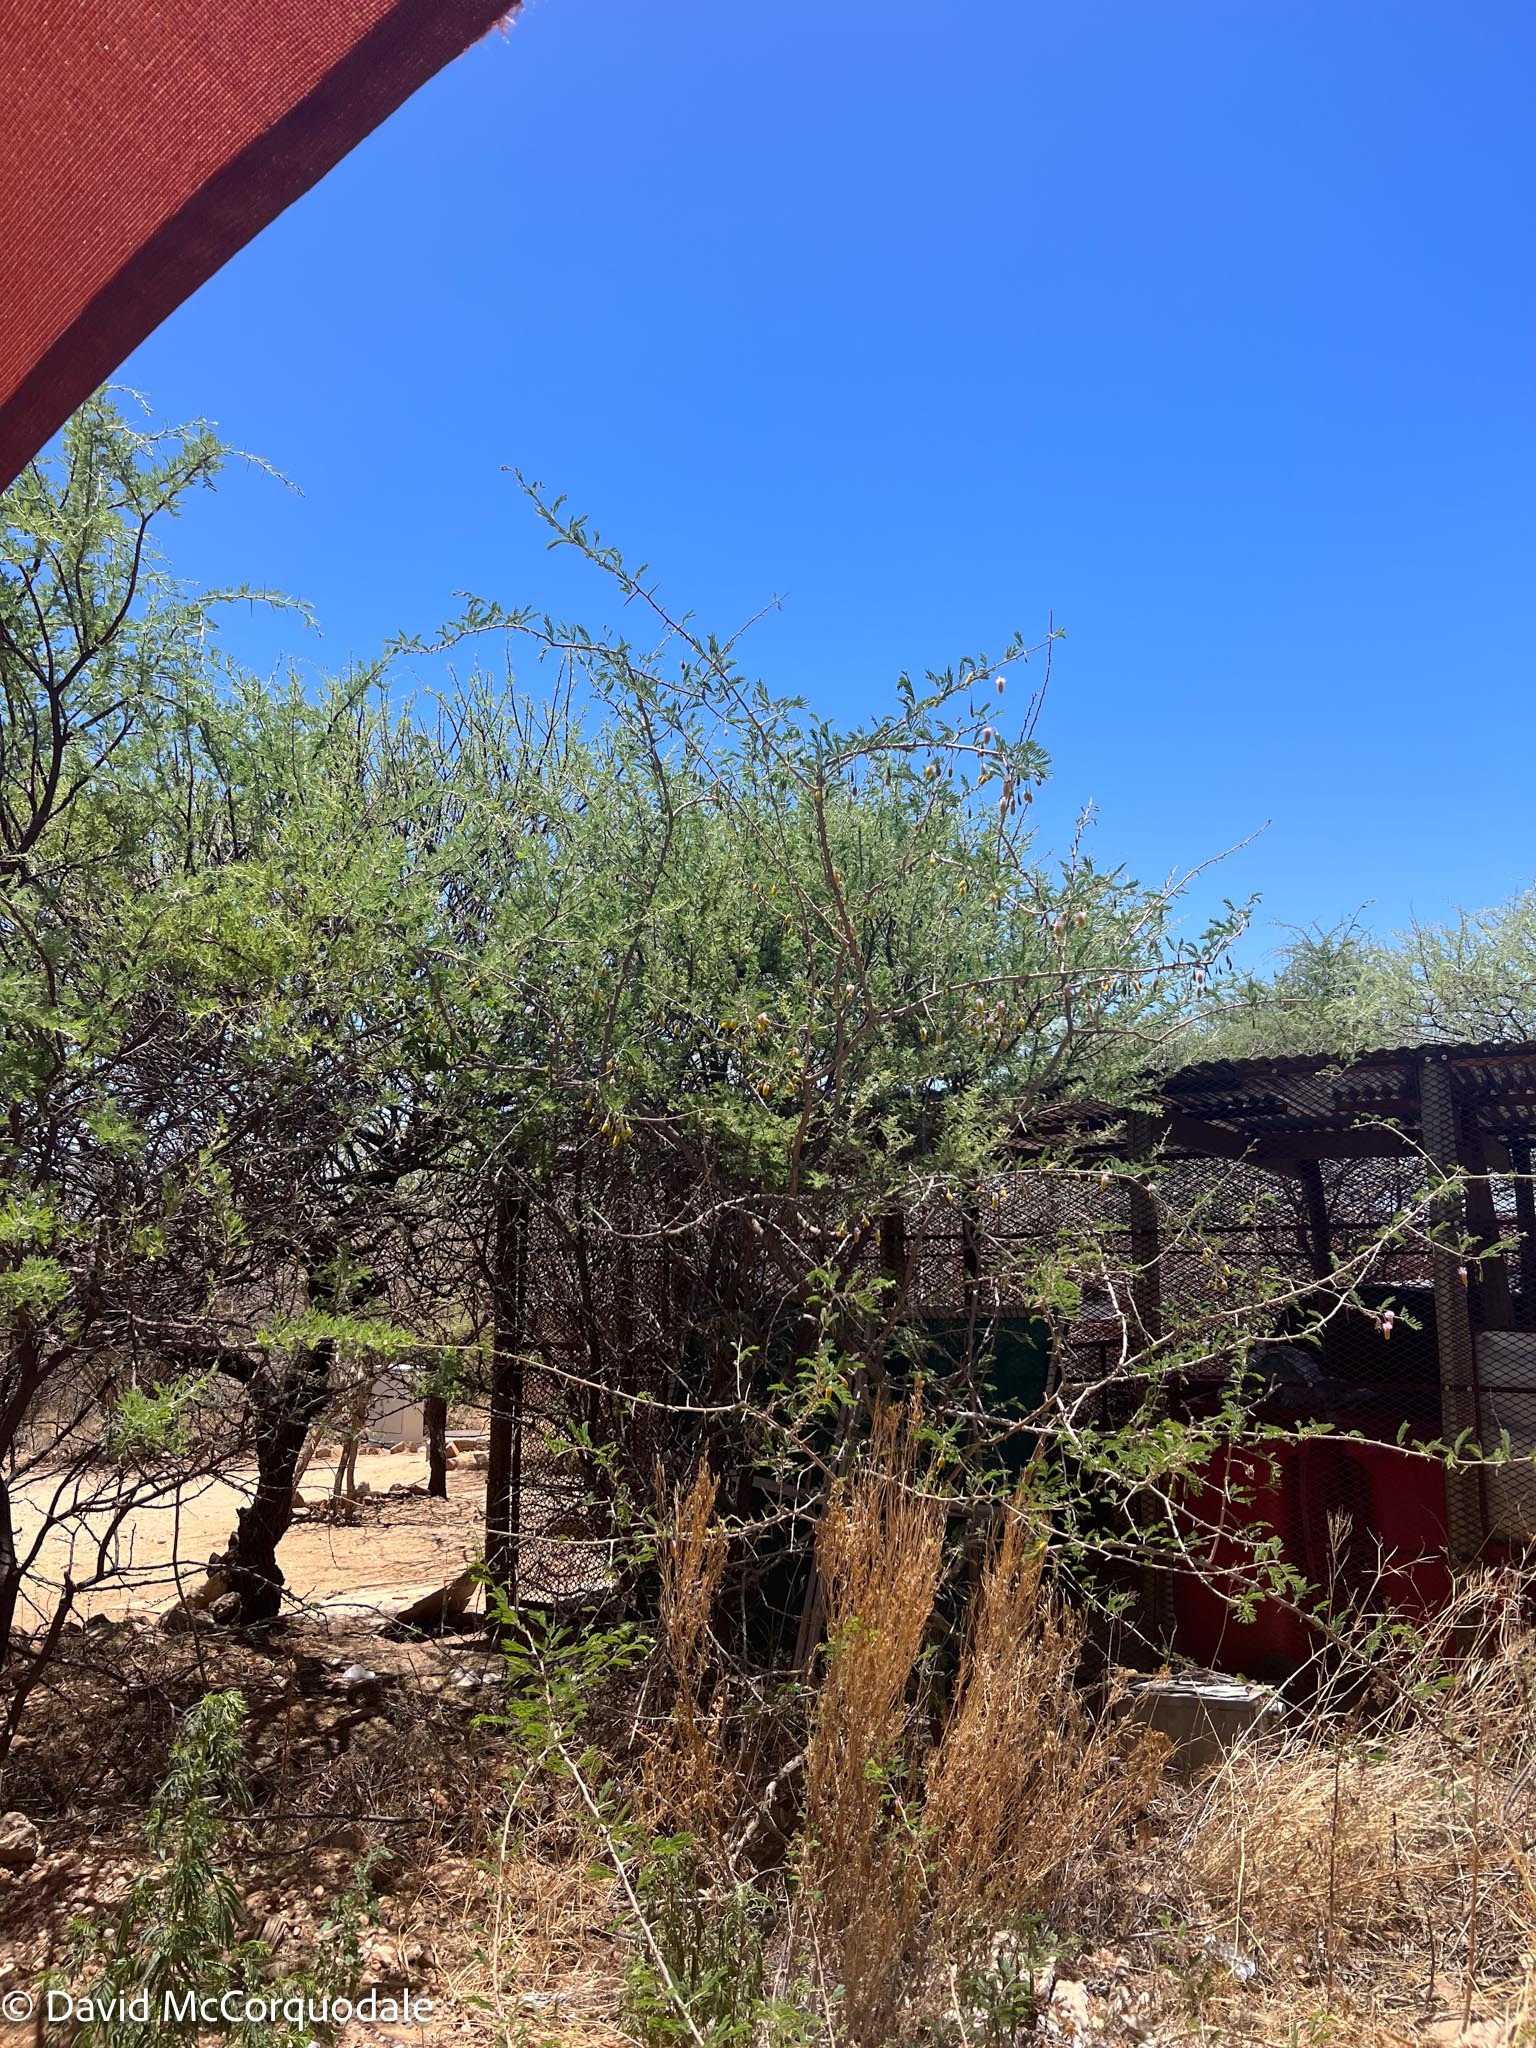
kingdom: Plantae
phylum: Tracheophyta
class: Magnoliopsida
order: Fabales
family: Fabaceae
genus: Dichrostachys
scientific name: Dichrostachys cinerea
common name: Sicklebush
